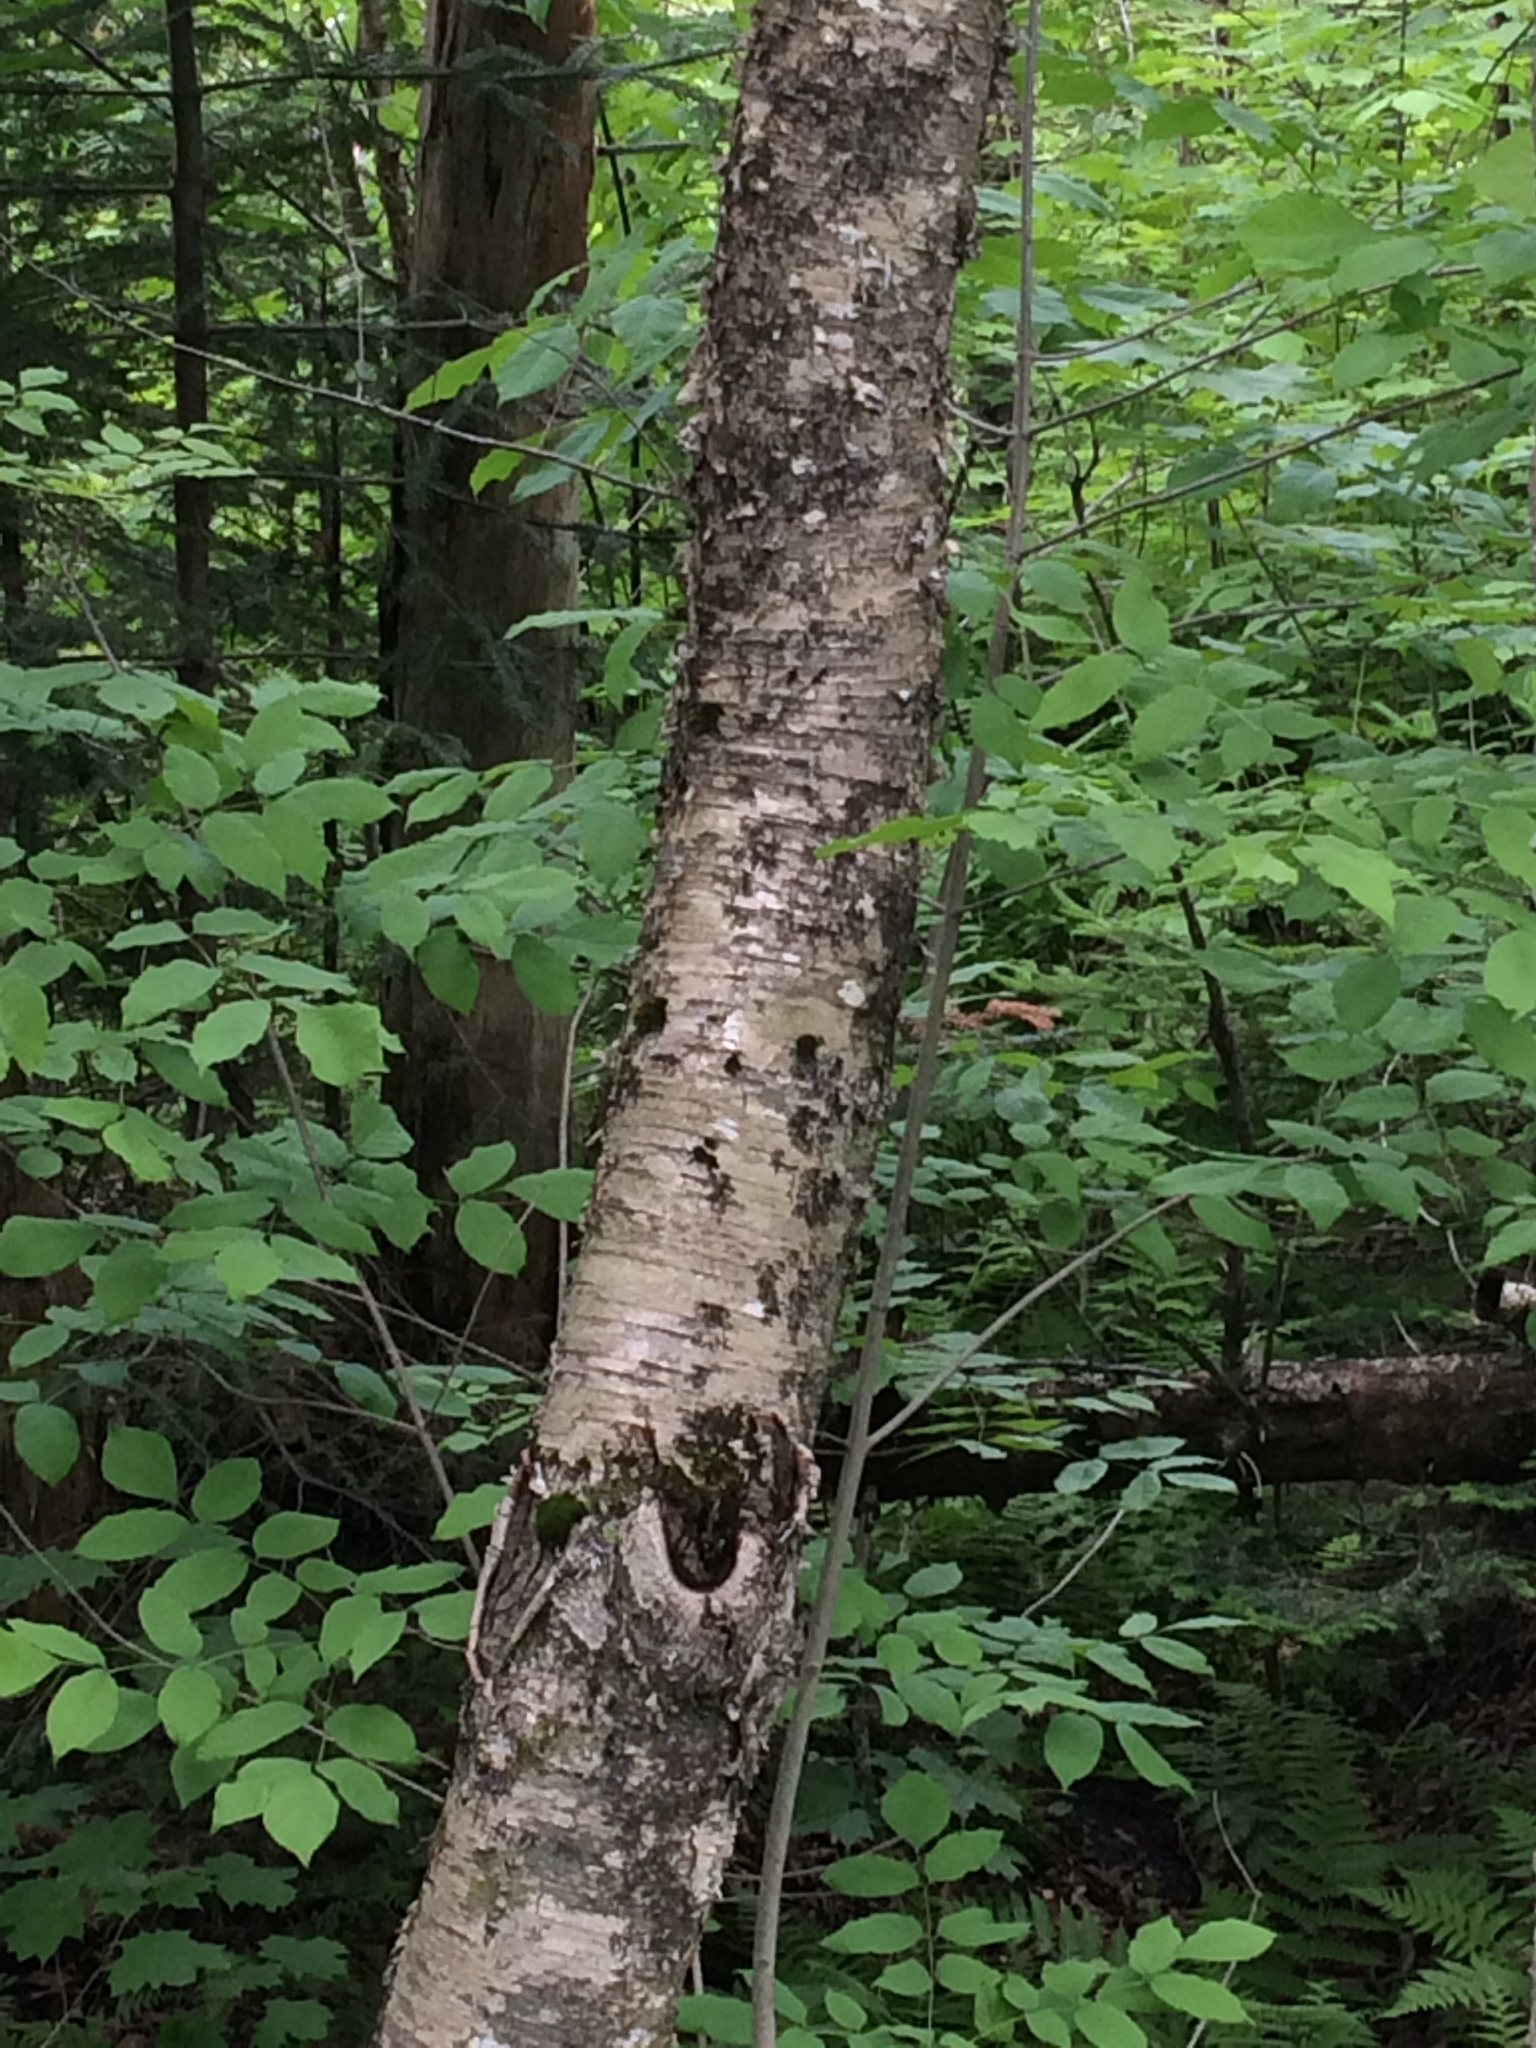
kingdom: Plantae
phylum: Tracheophyta
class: Magnoliopsida
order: Fagales
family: Betulaceae
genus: Betula
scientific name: Betula alleghaniensis
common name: Yellow birch
